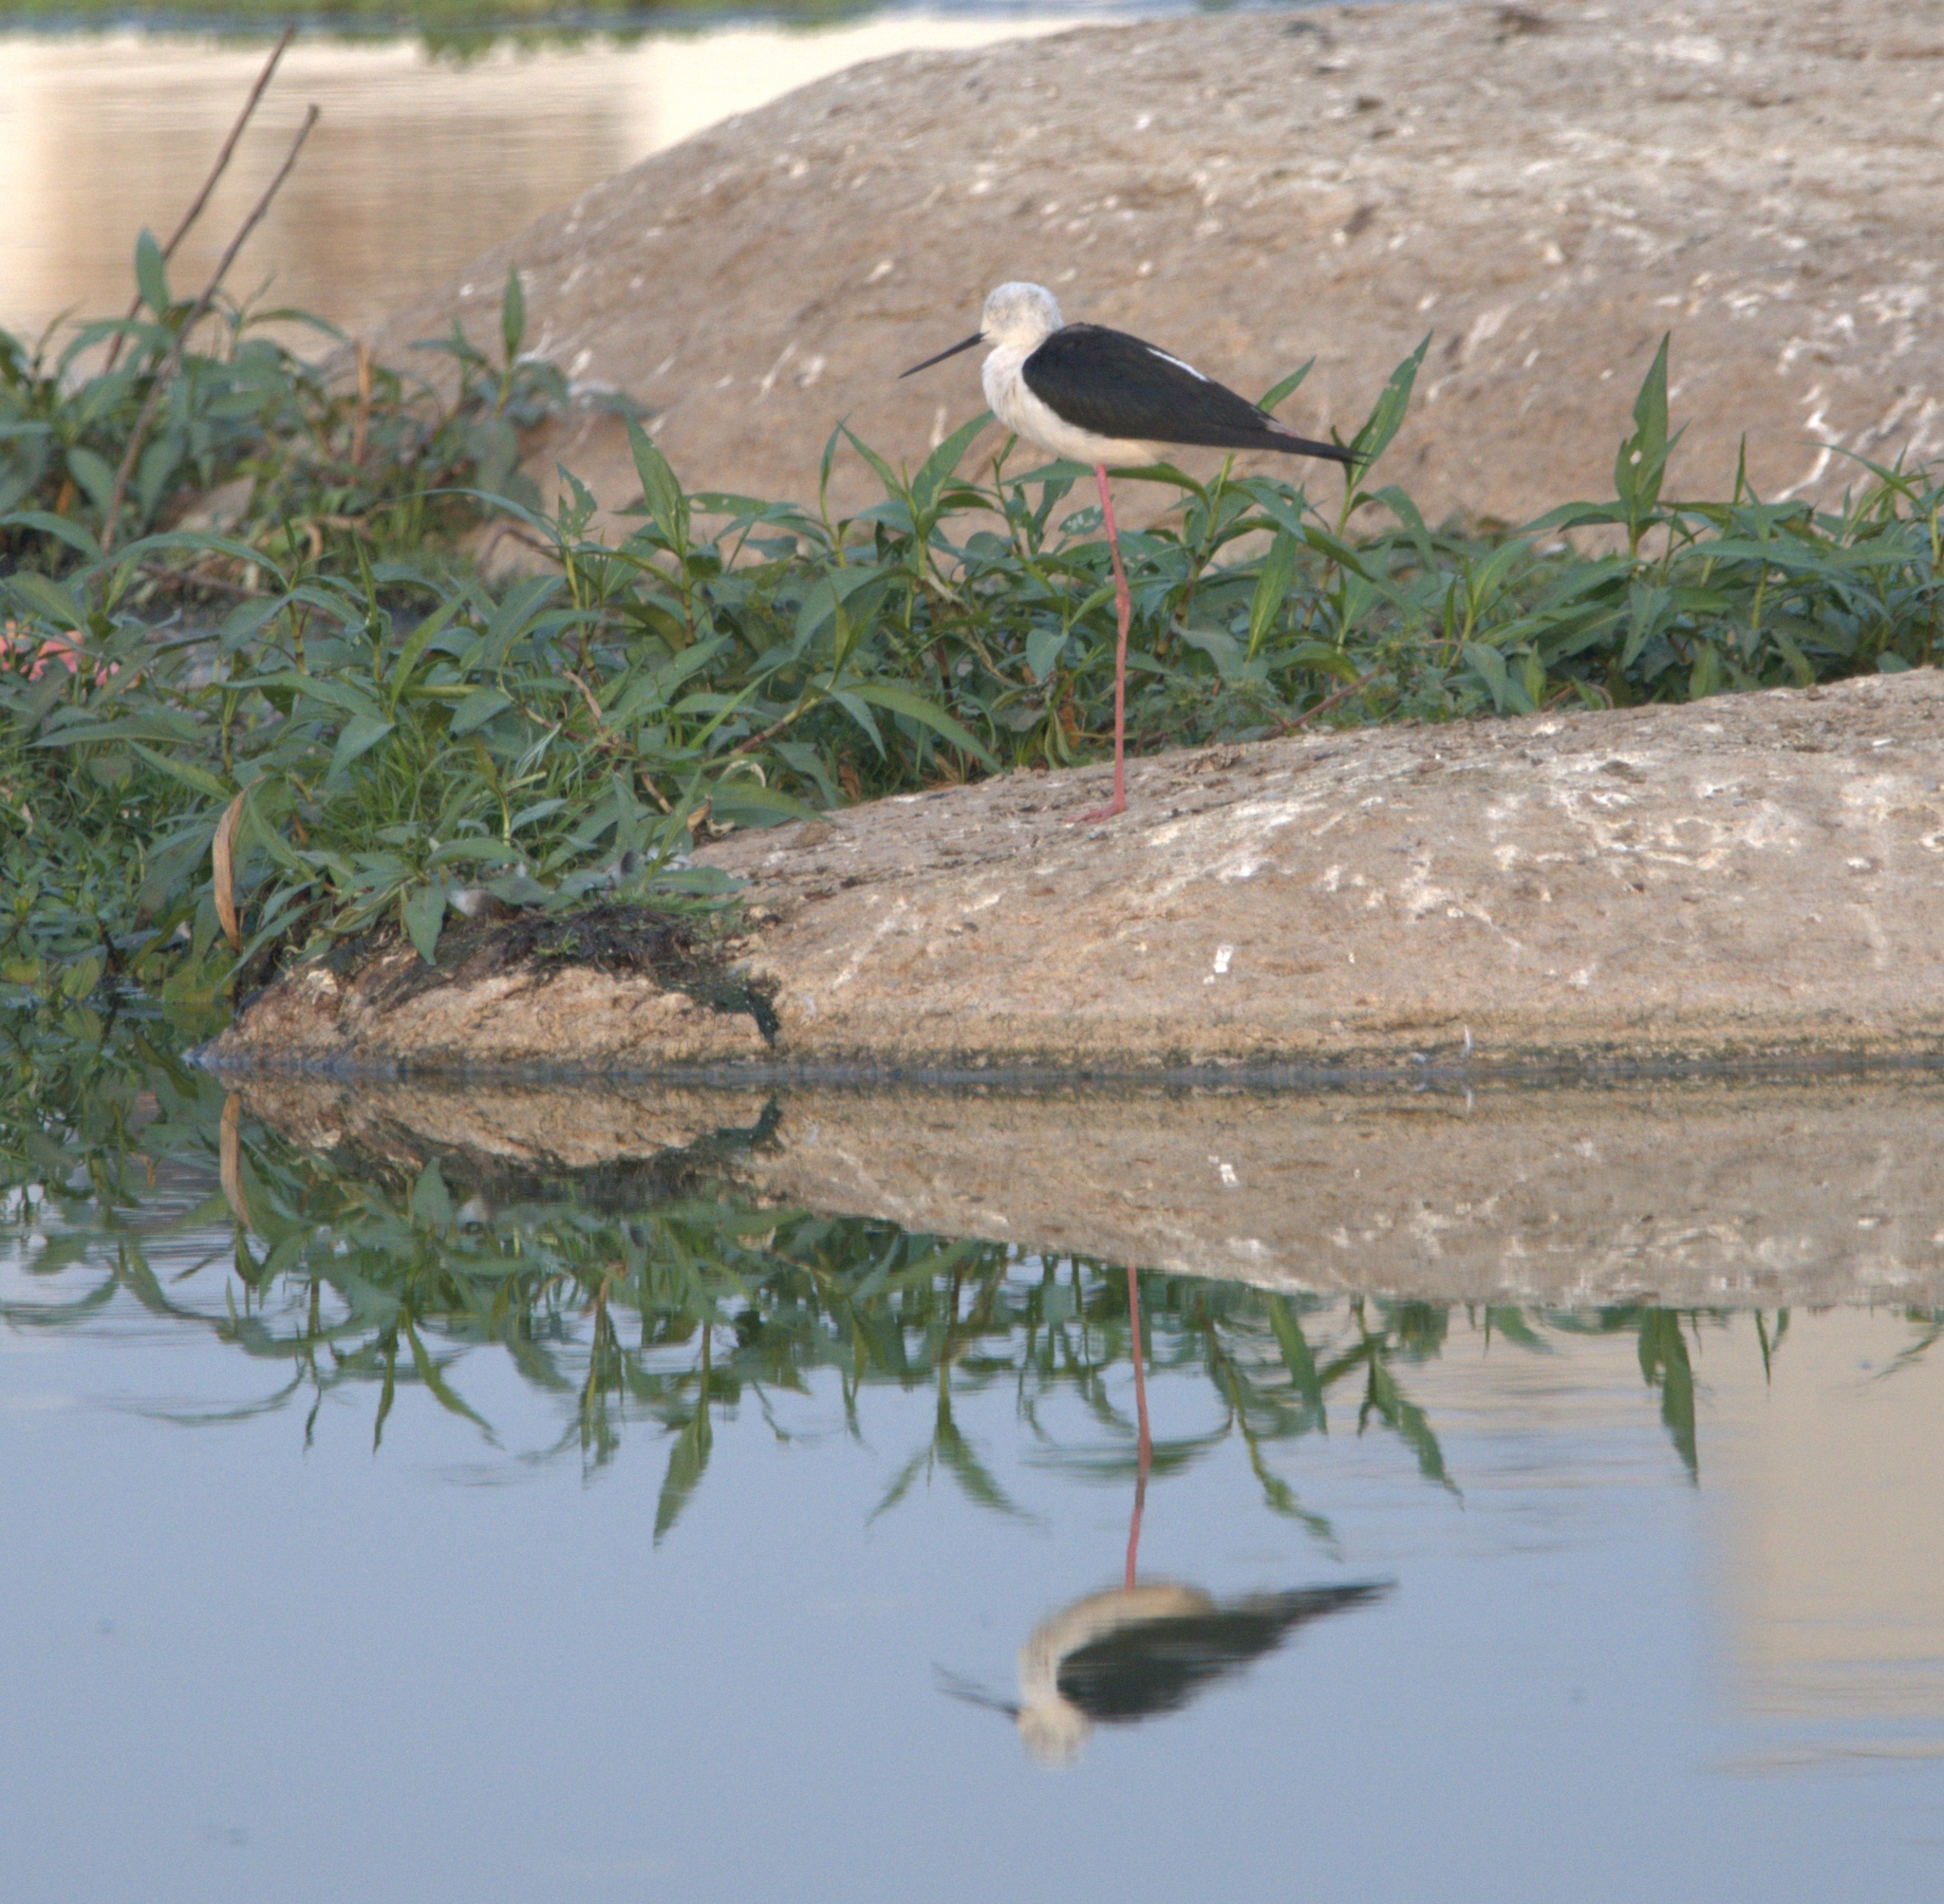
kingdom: Animalia
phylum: Chordata
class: Aves
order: Charadriiformes
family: Recurvirostridae
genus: Himantopus
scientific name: Himantopus himantopus
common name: Black-winged stilt
